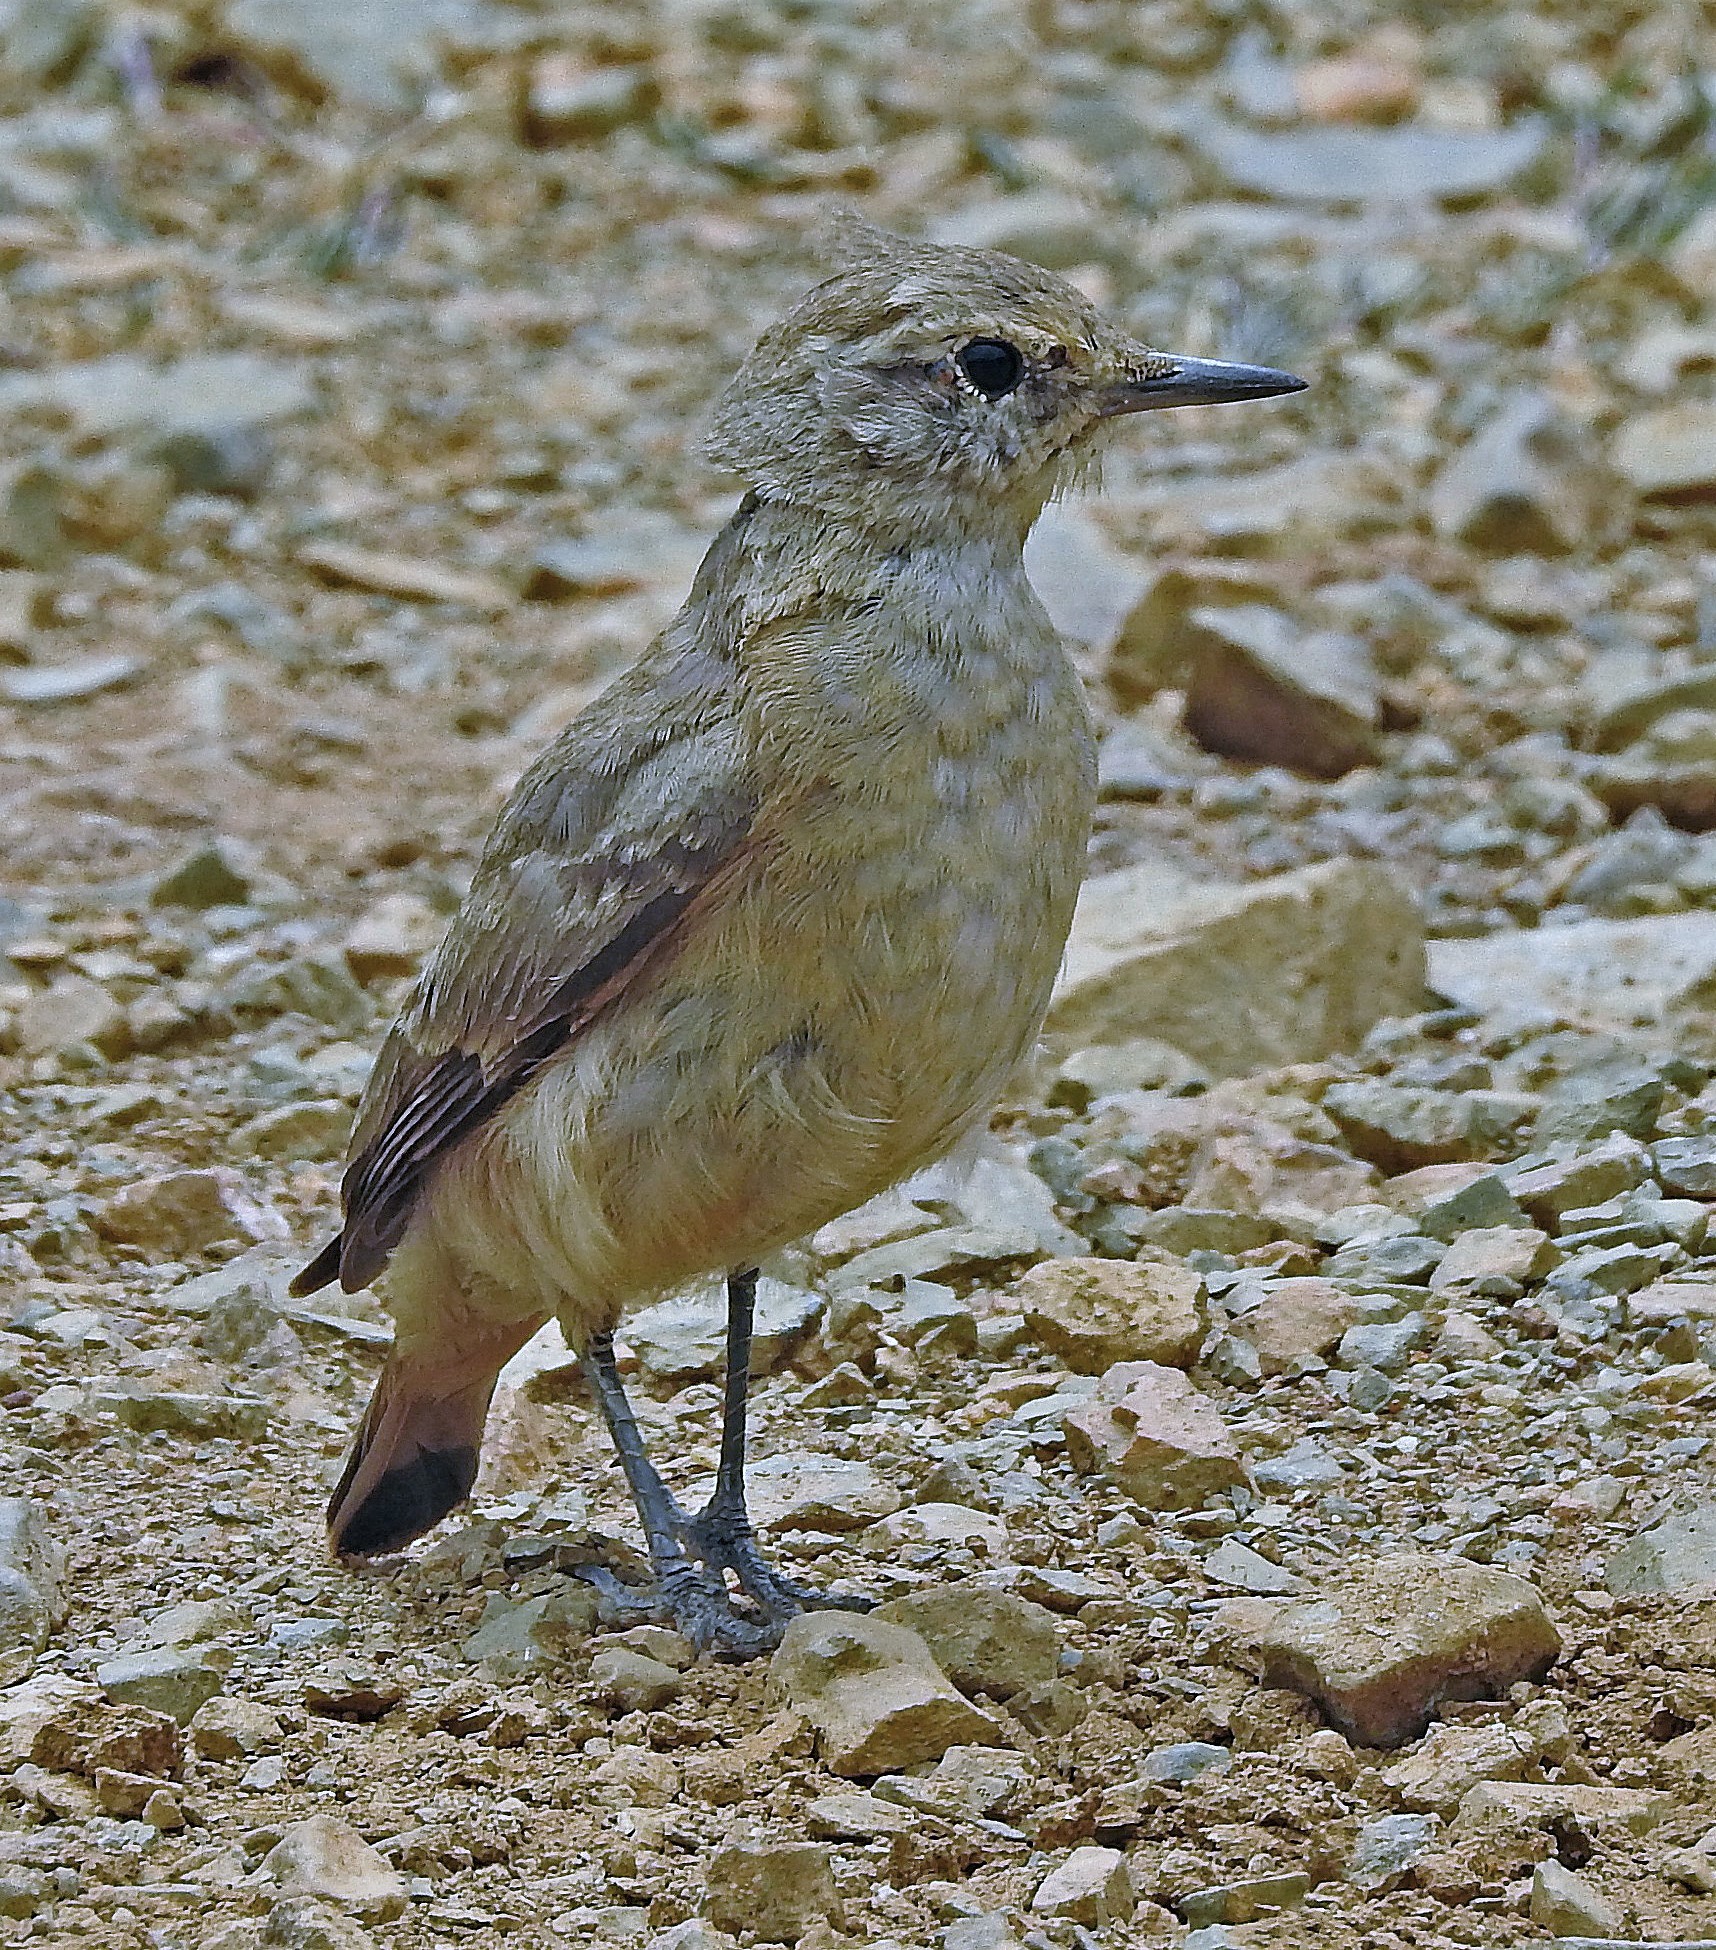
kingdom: Animalia
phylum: Chordata
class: Aves
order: Passeriformes
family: Furnariidae
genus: Geositta
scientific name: Geositta rufipennis
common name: Rufous-banded miner
